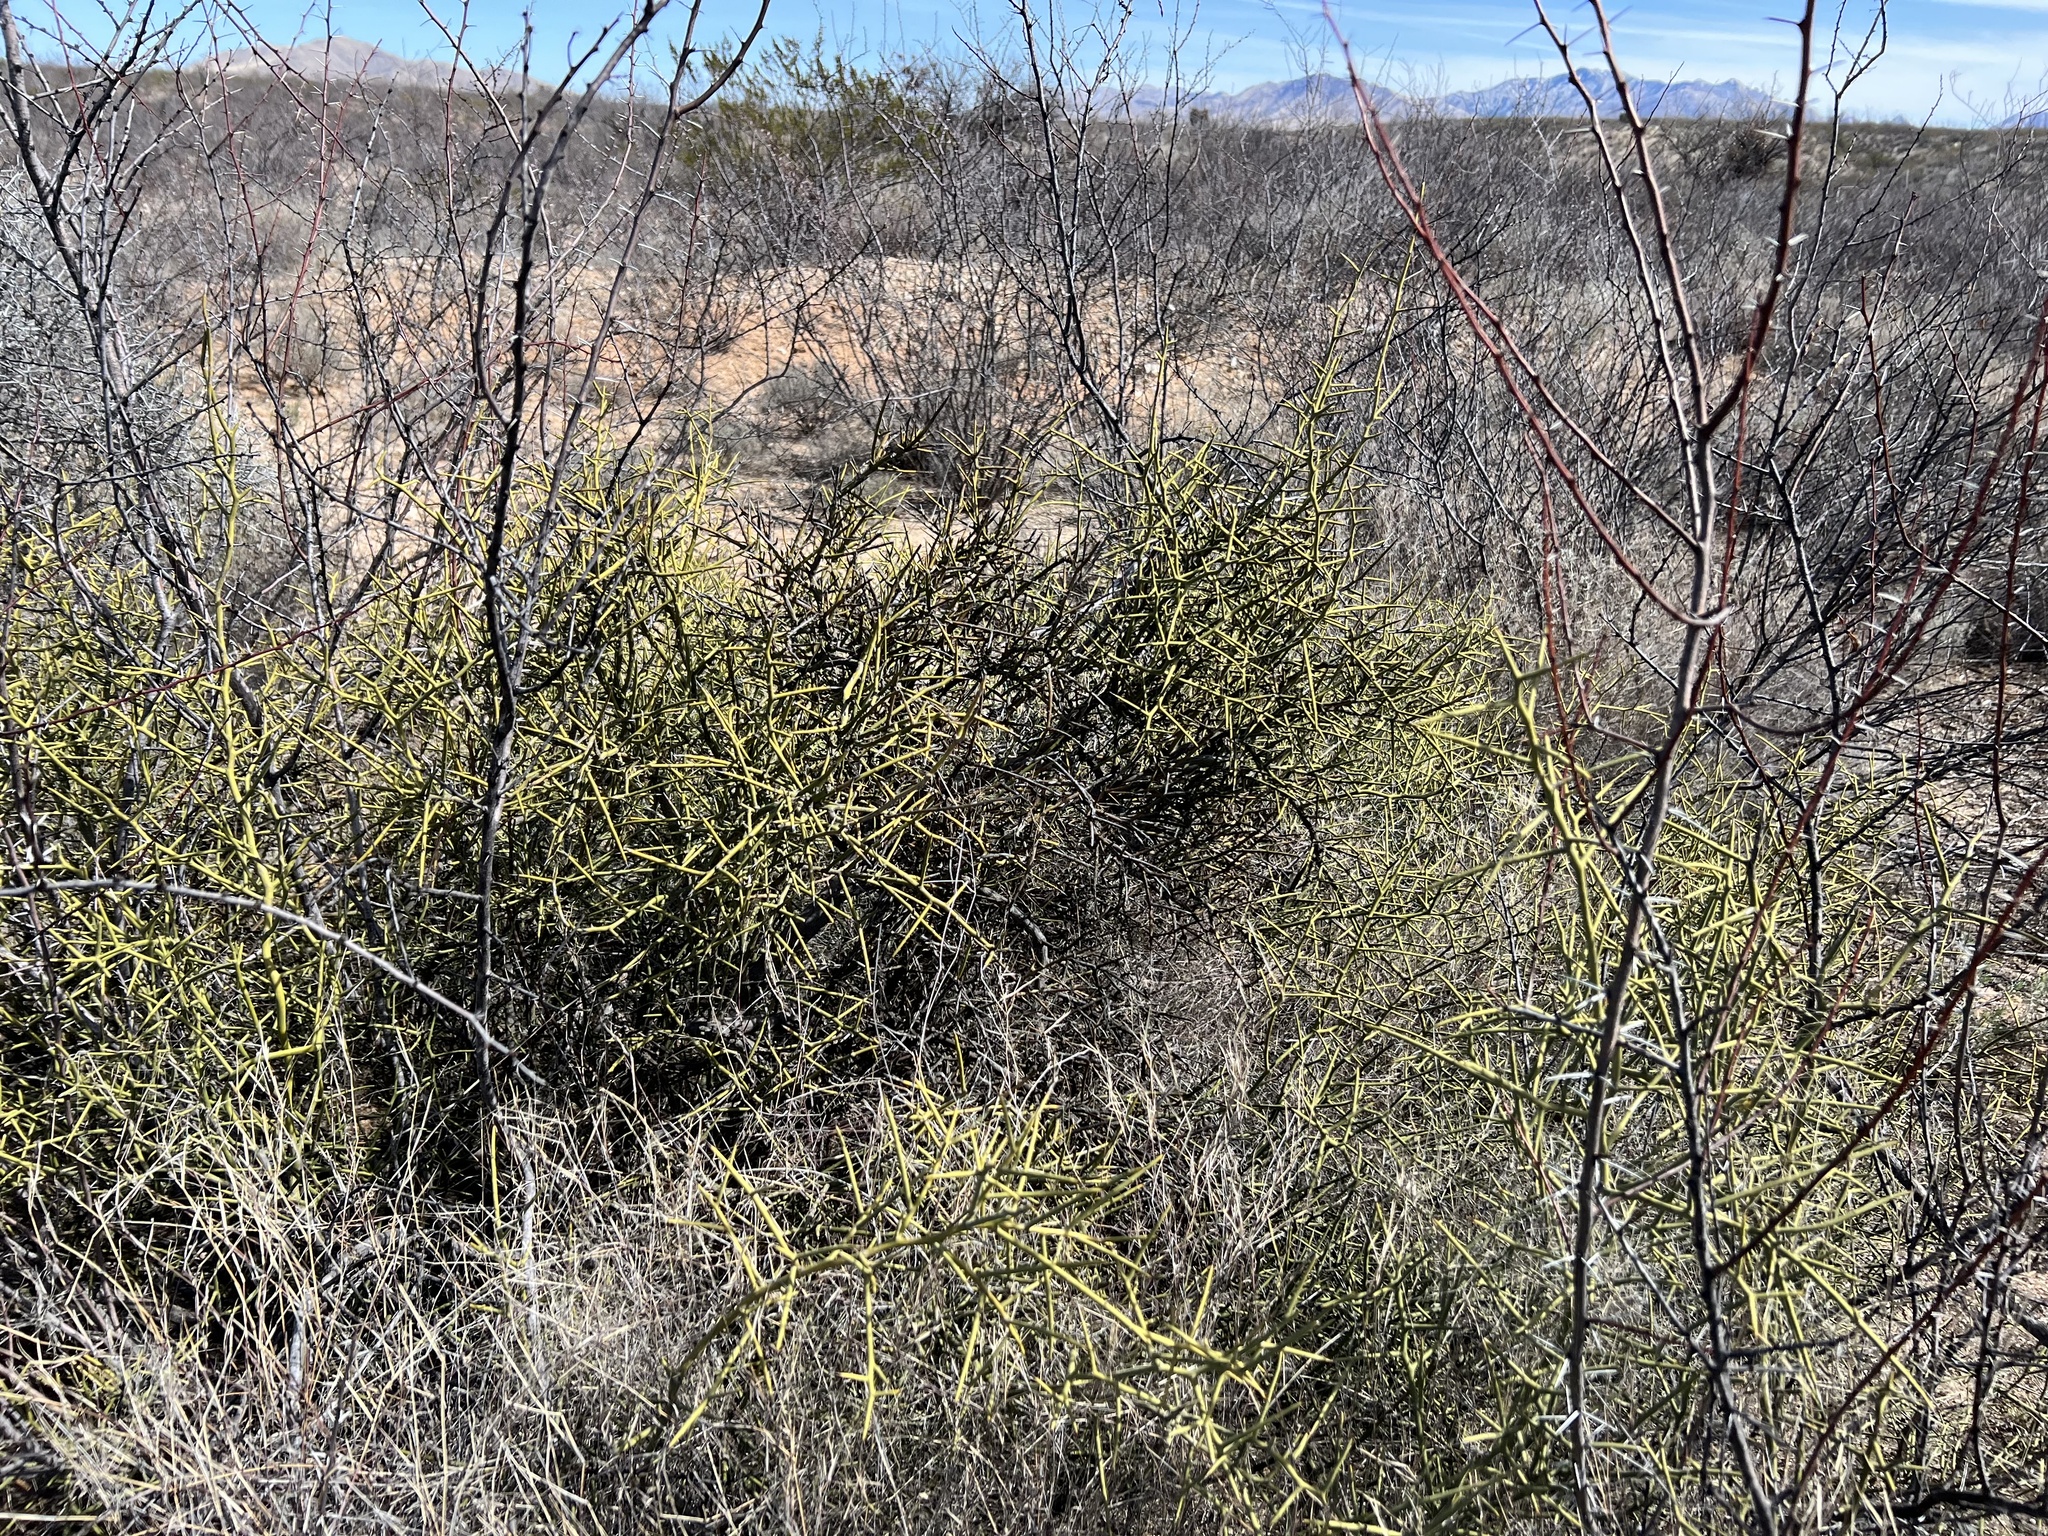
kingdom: Plantae
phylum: Tracheophyta
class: Magnoliopsida
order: Brassicales
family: Koeberliniaceae
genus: Koeberlinia
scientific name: Koeberlinia spinosa
